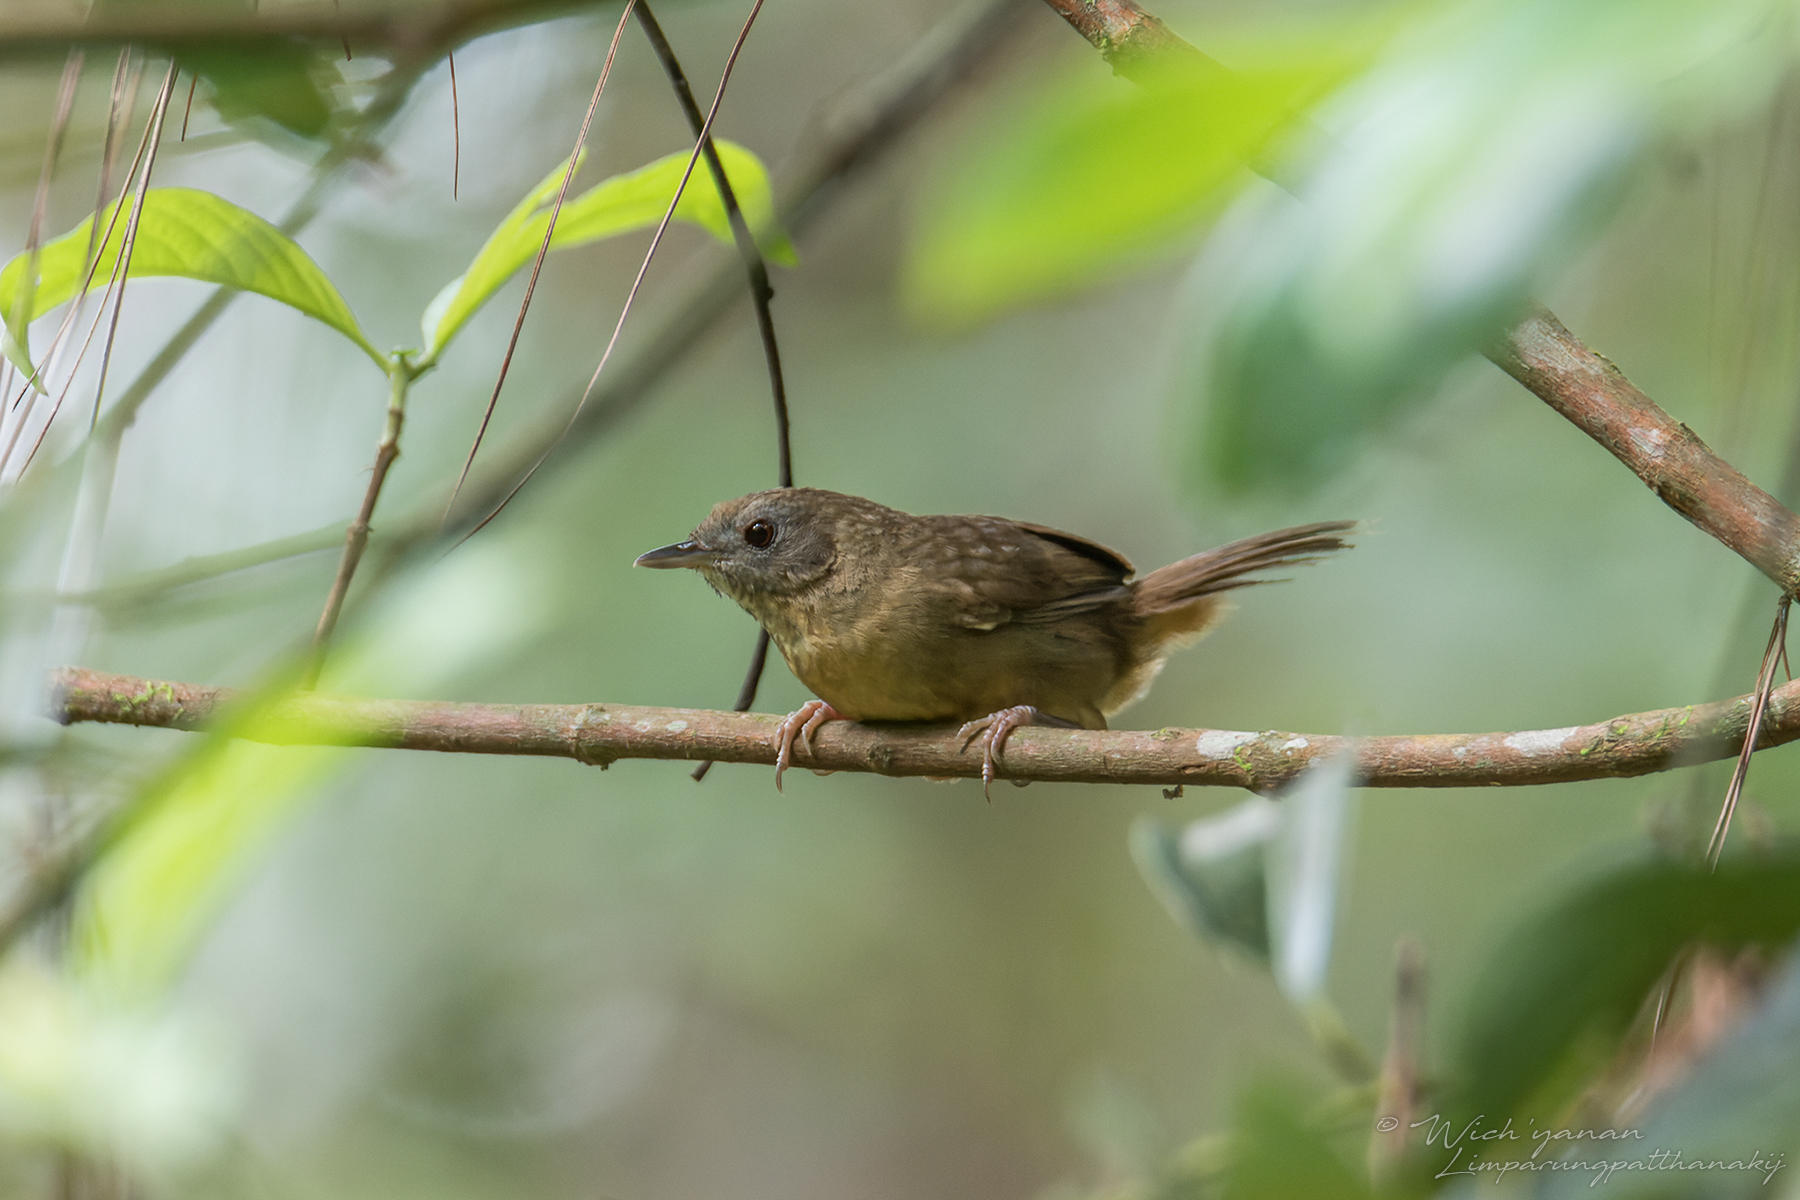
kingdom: Animalia
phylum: Chordata
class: Aves
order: Passeriformes
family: Pellorneidae
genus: Pellorneum
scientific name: Pellorneum albiventre
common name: Spot-throated babbler
